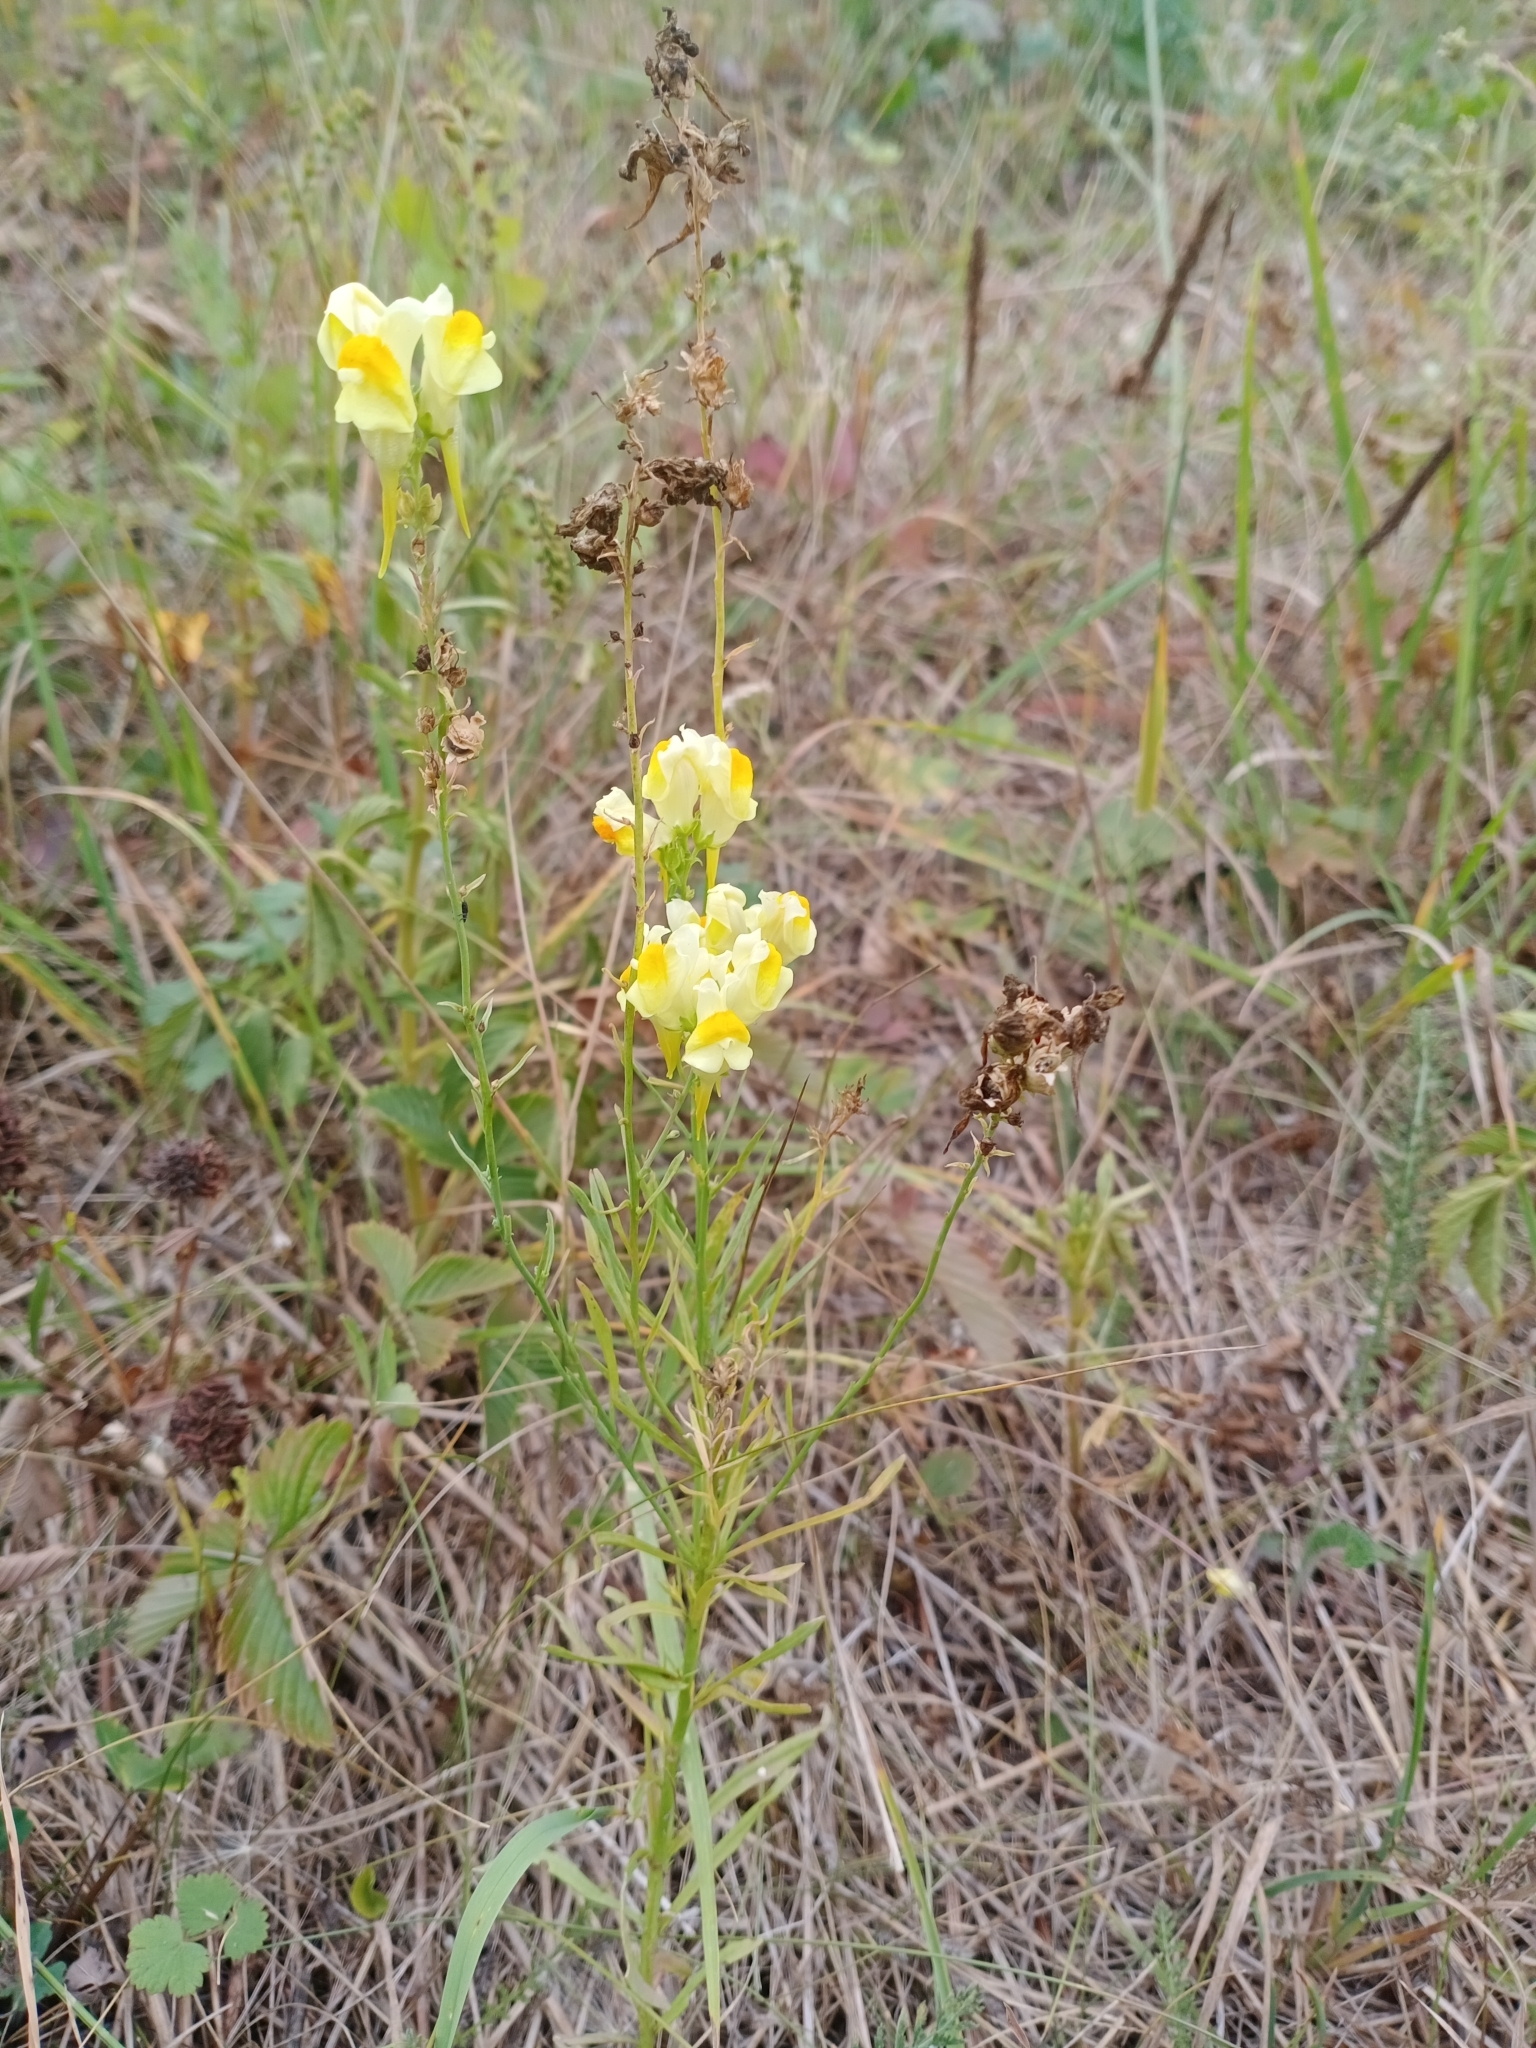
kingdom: Plantae
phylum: Tracheophyta
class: Magnoliopsida
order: Lamiales
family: Plantaginaceae
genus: Linaria
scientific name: Linaria vulgaris
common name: Butter and eggs
